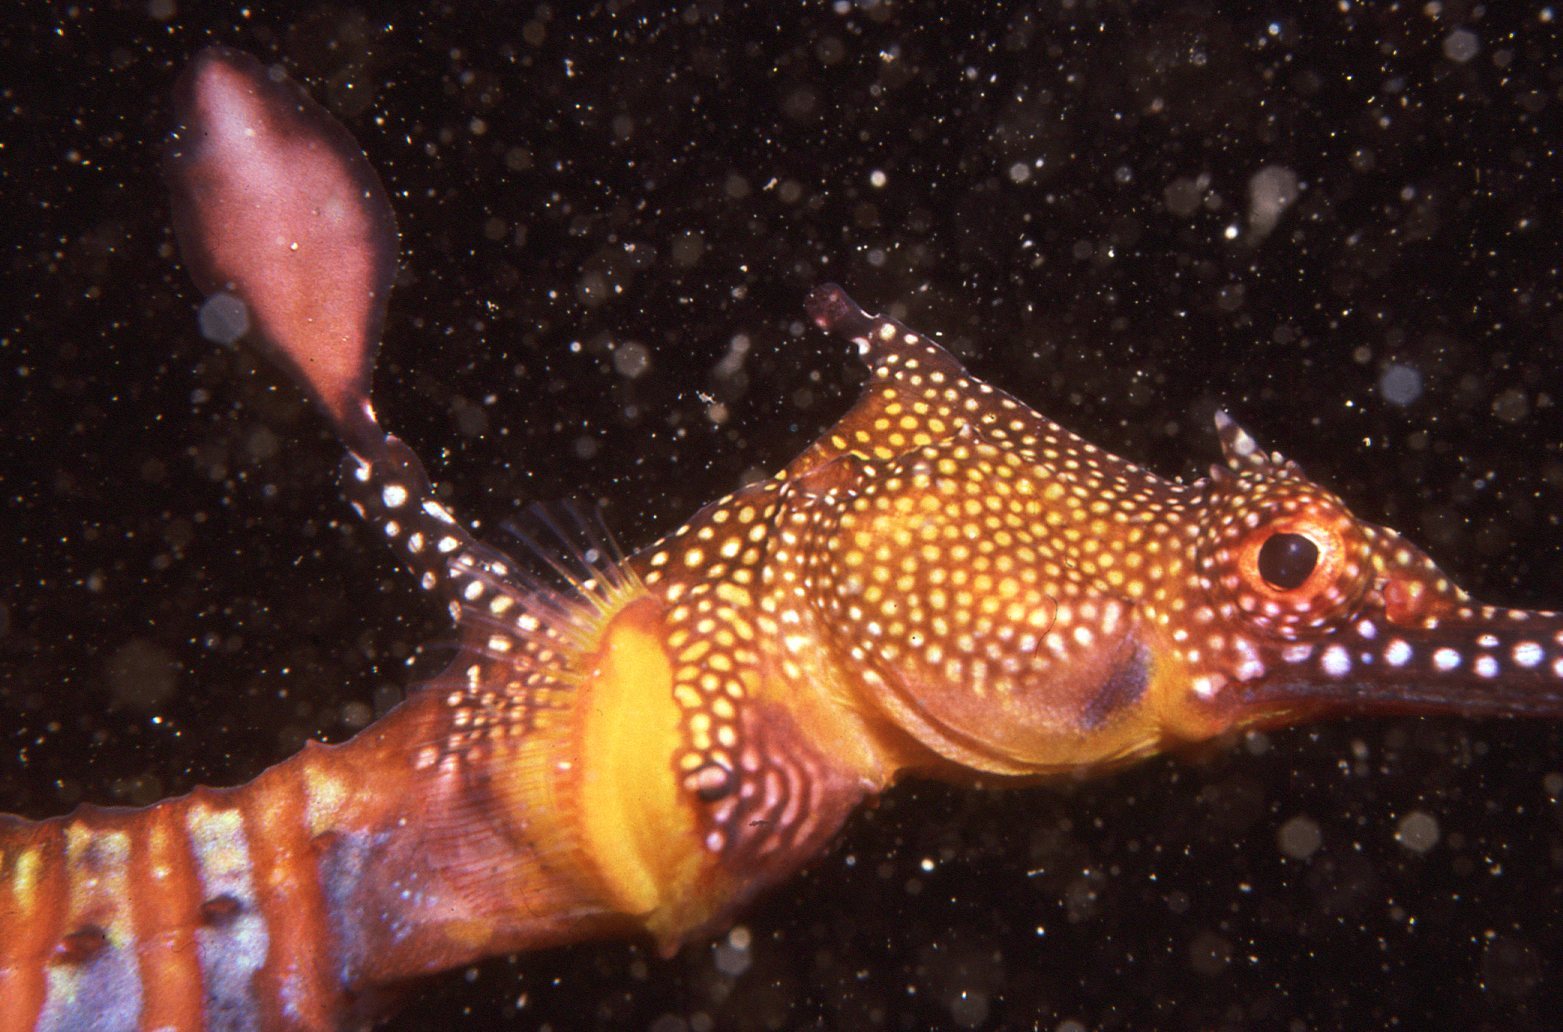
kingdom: Animalia
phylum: Chordata
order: Syngnathiformes
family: Syngnathidae
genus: Phyllopteryx
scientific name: Phyllopteryx taeniolatus
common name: Common seadragon
